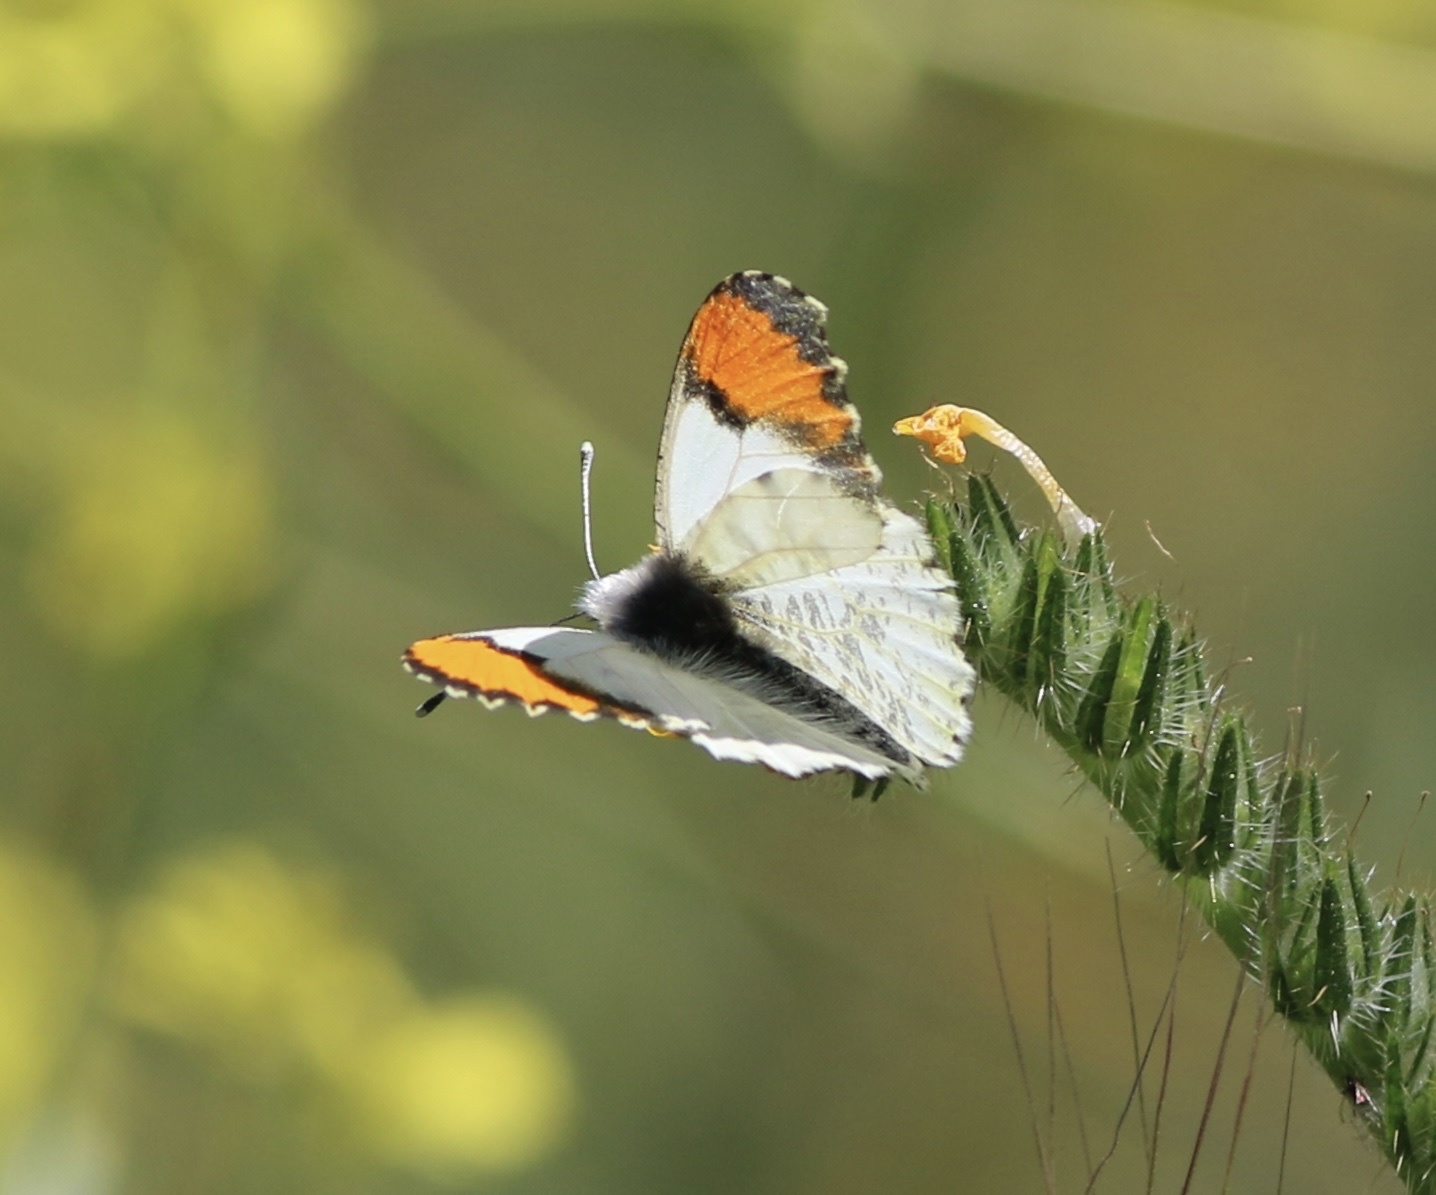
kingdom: Animalia
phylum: Arthropoda
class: Insecta
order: Lepidoptera
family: Pieridae
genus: Anthocharis
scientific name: Anthocharis sara
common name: Sara's orangetip
